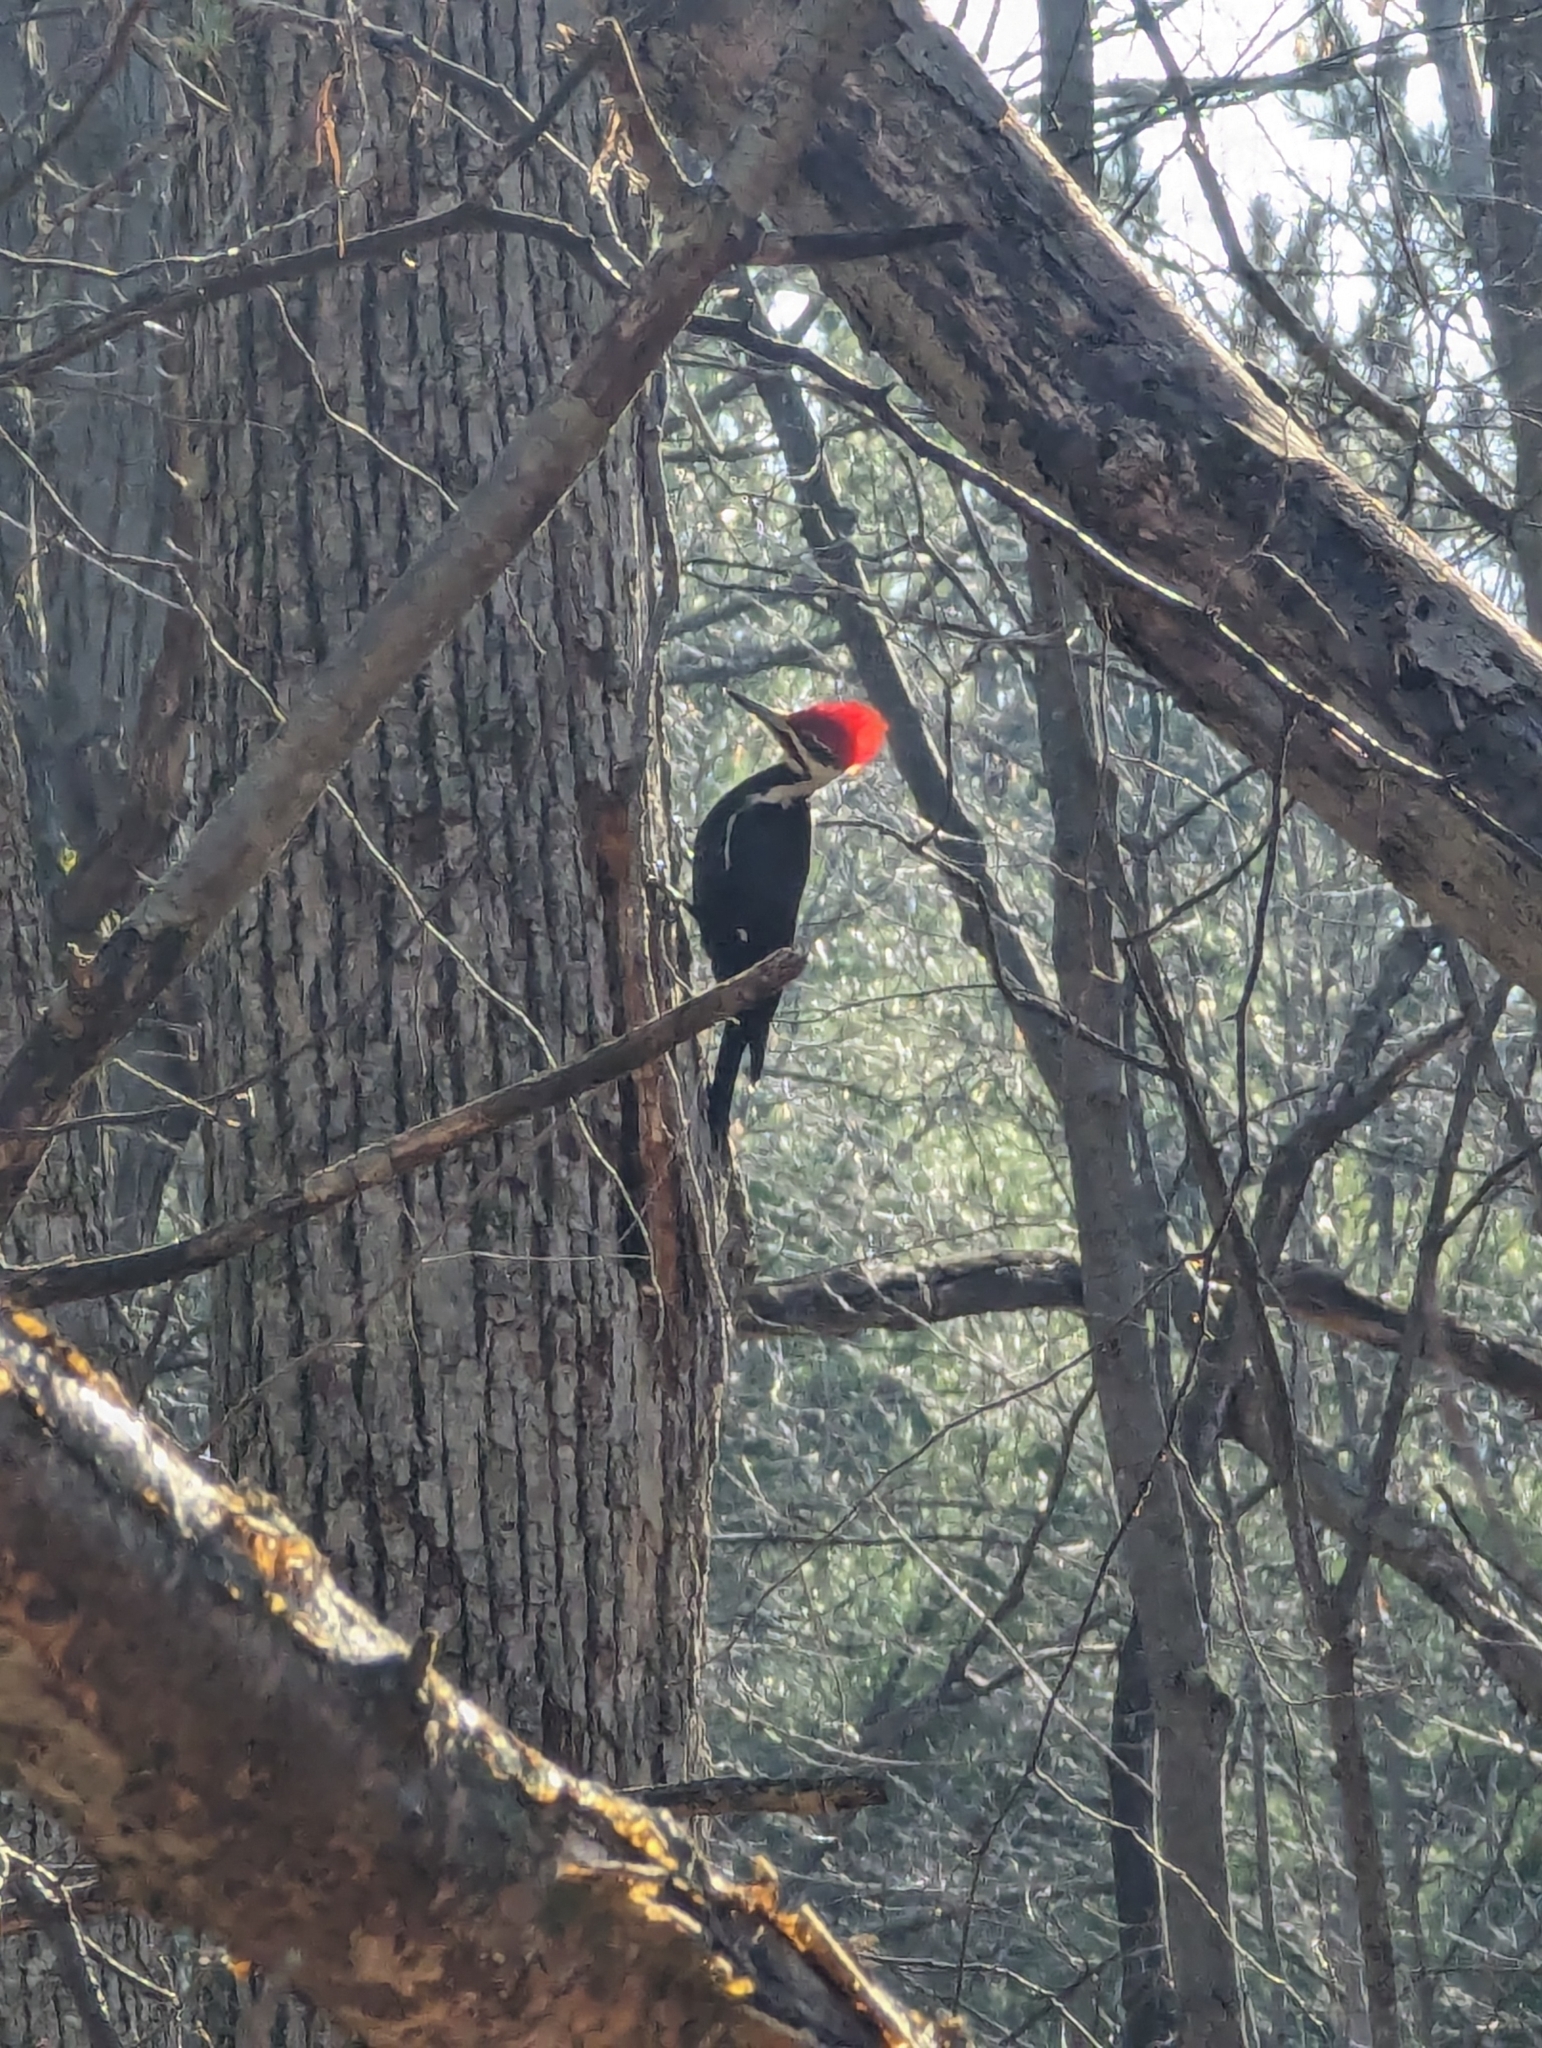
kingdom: Animalia
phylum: Chordata
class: Aves
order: Piciformes
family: Picidae
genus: Dryocopus
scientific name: Dryocopus pileatus
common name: Pileated woodpecker
